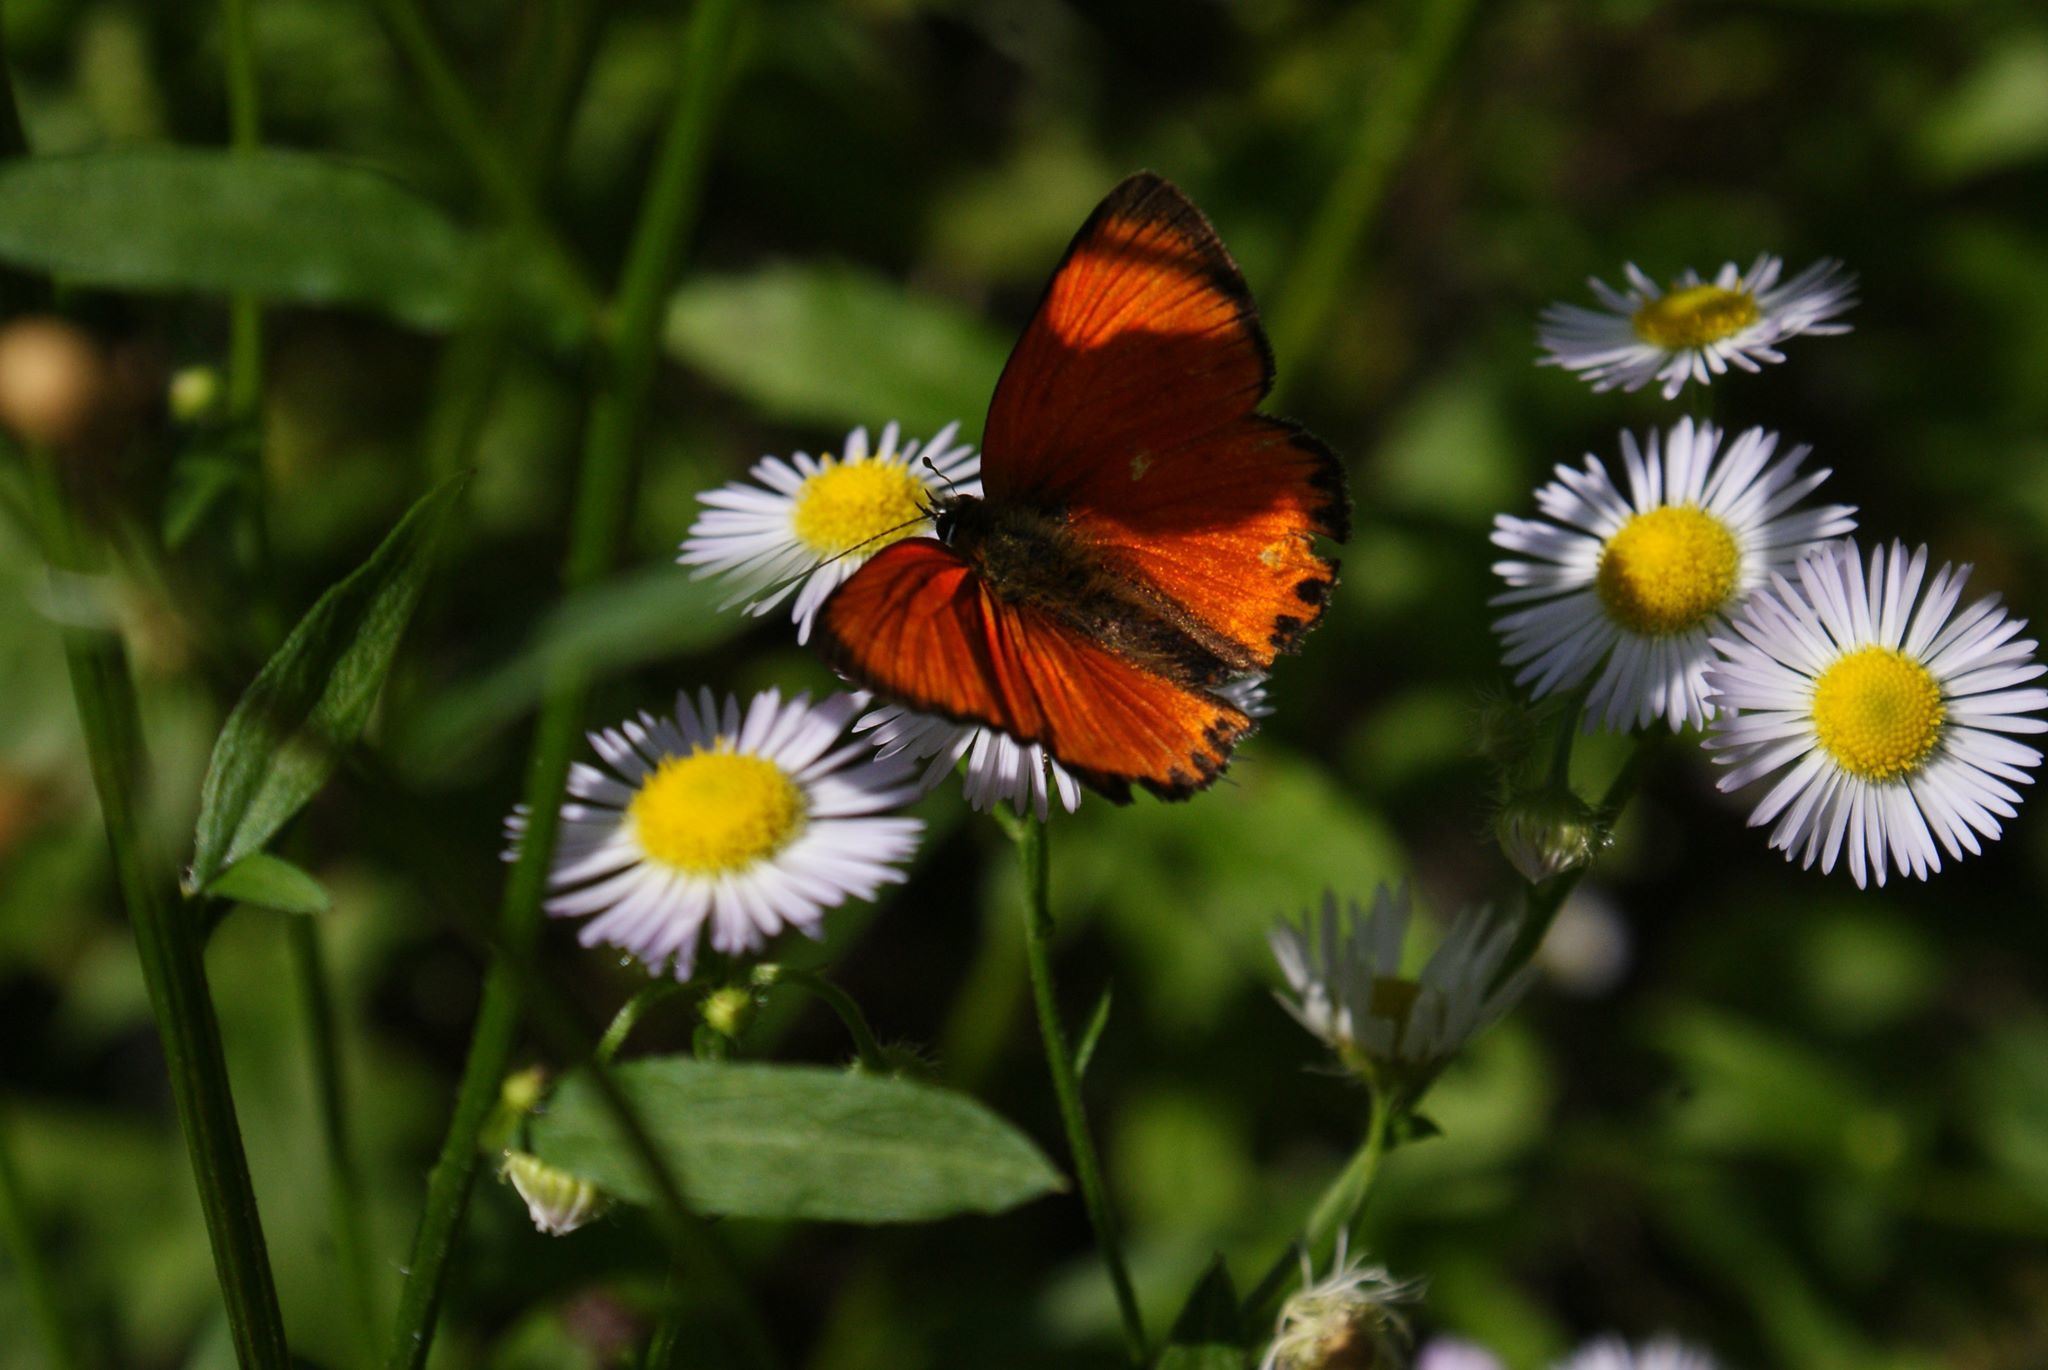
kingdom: Animalia
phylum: Arthropoda
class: Insecta
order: Lepidoptera
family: Lycaenidae
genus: Lycaena
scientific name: Lycaena virgaureae
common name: Scarce copper
